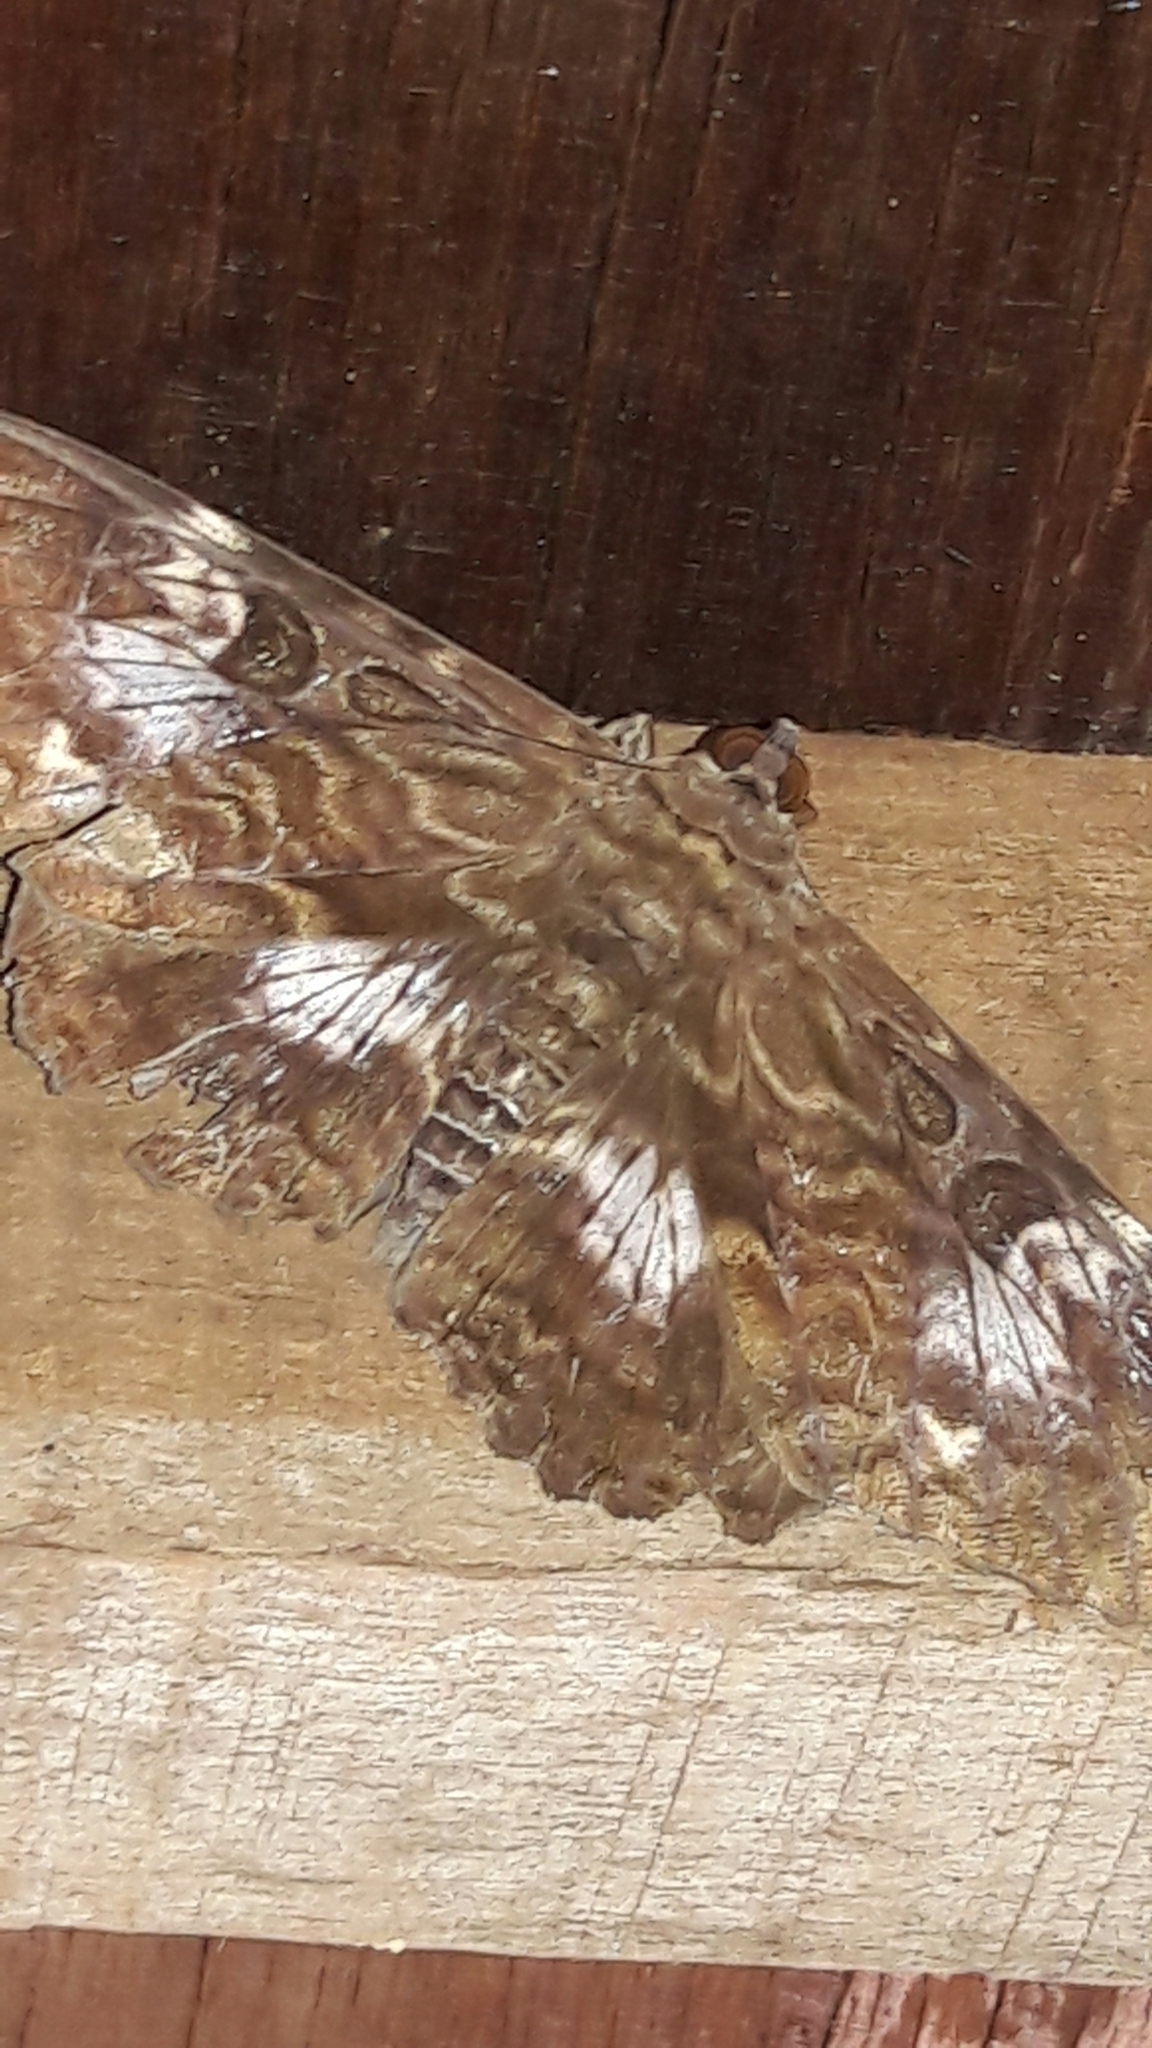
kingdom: Animalia
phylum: Arthropoda
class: Insecta
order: Lepidoptera
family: Erebidae
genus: Letis
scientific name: Letis specularis
